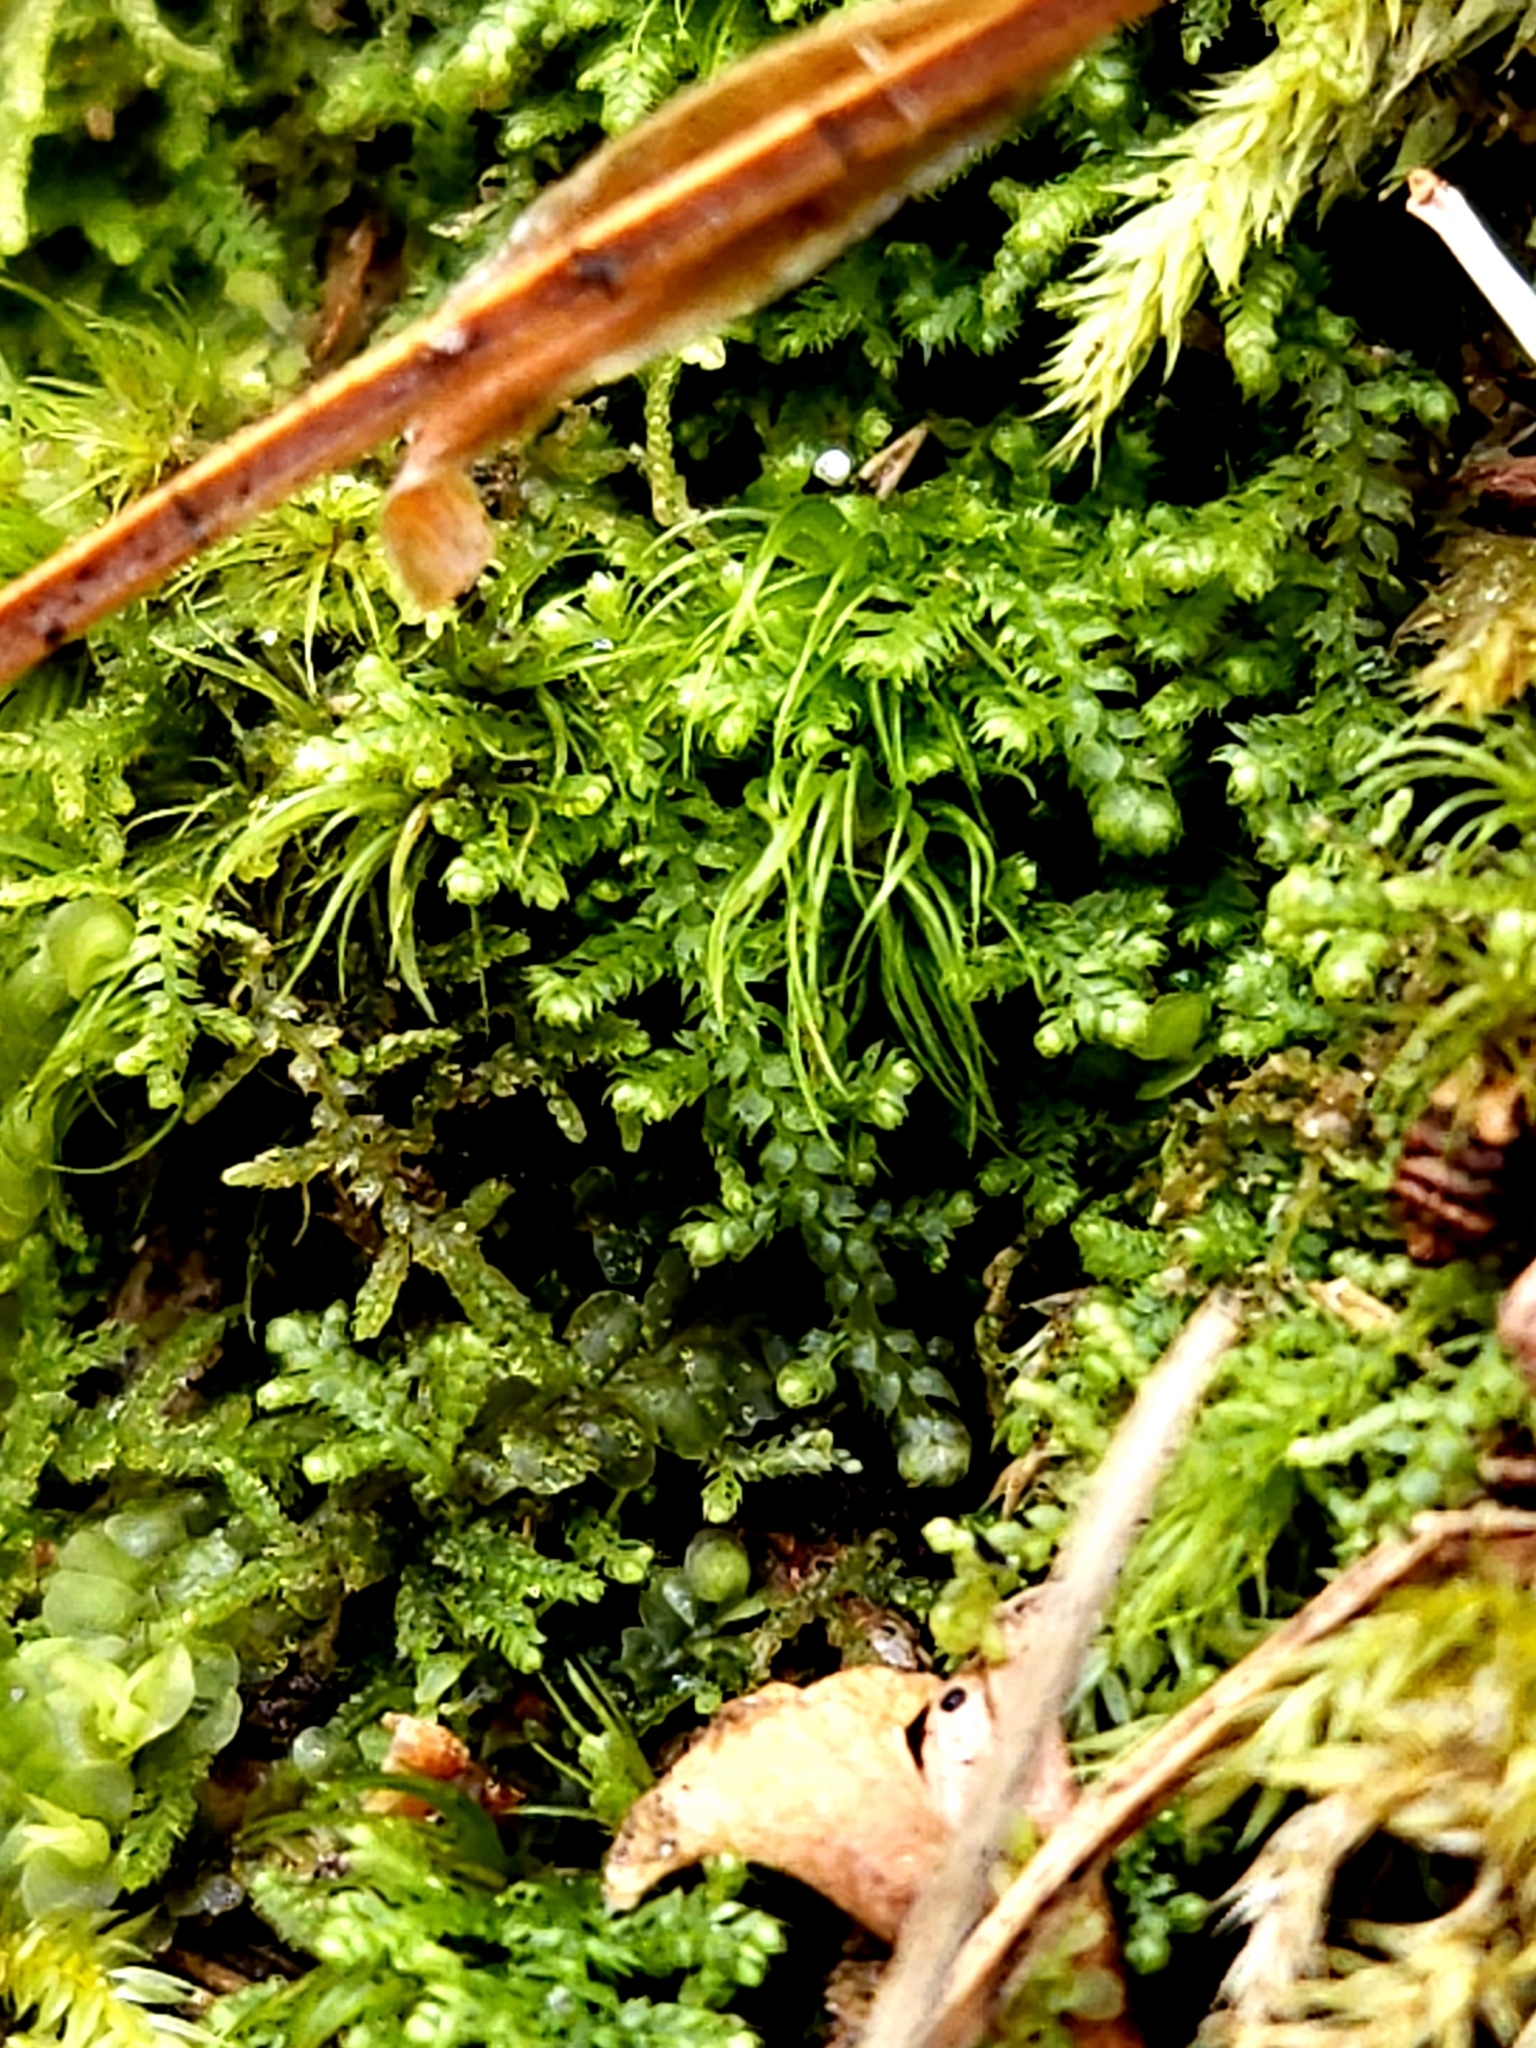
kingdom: Plantae
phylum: Marchantiophyta
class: Jungermanniopsida
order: Jungermanniales
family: Lepidoziaceae
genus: Lepidozia
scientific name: Lepidozia reptans
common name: Creeping fingerwort
